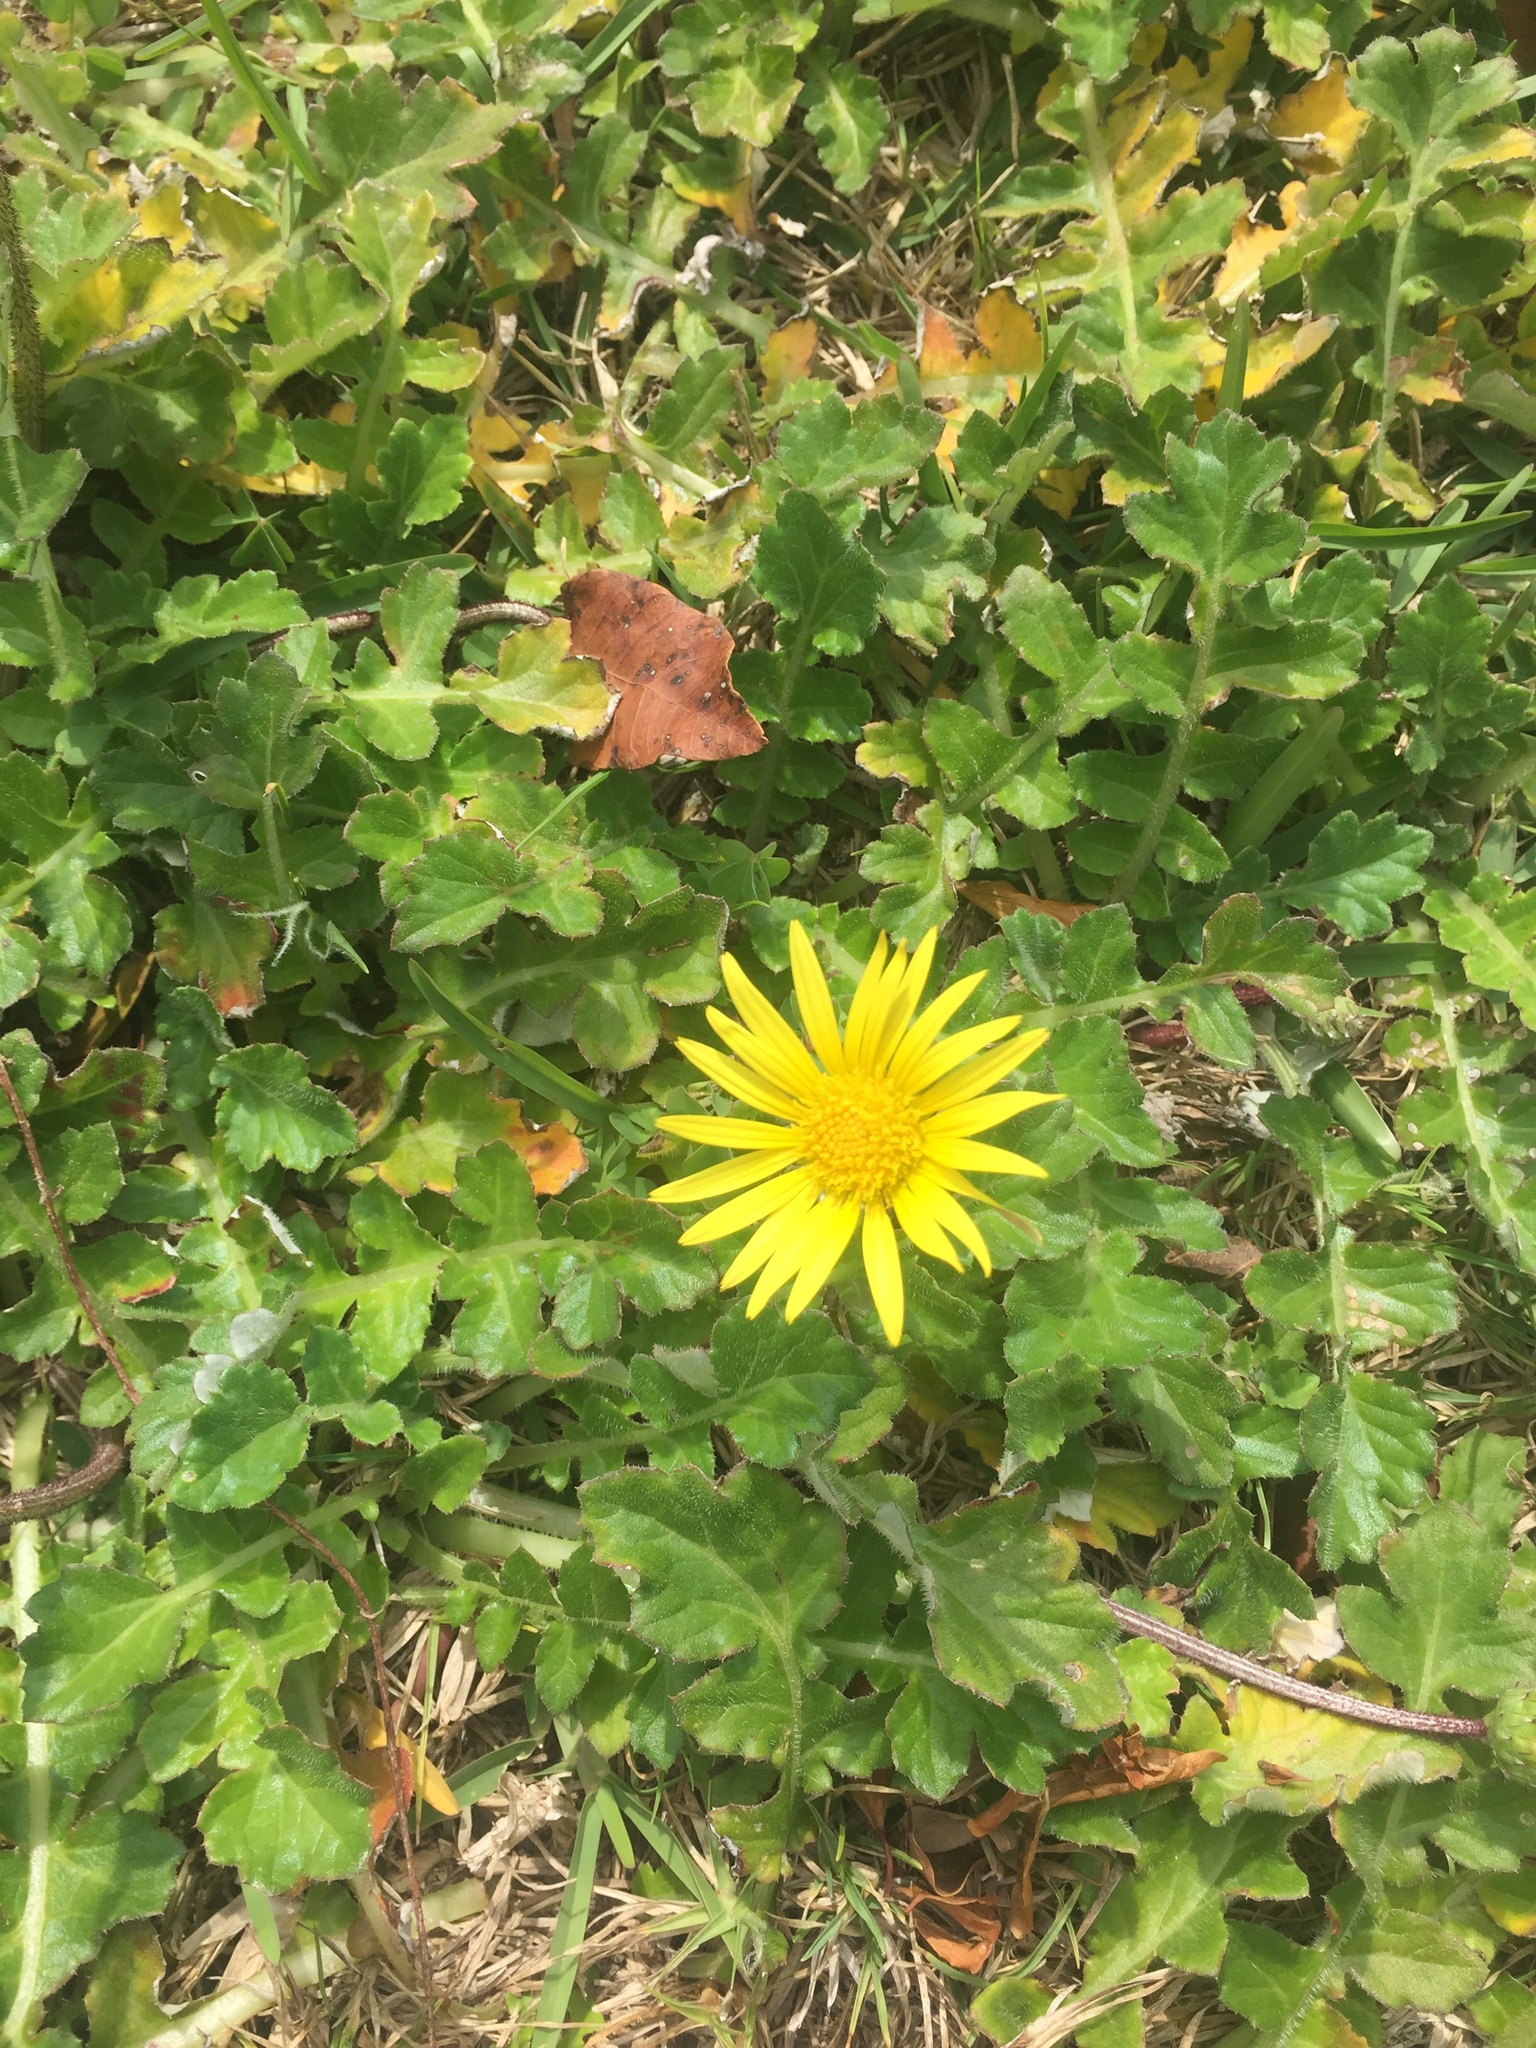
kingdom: Plantae
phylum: Tracheophyta
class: Magnoliopsida
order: Asterales
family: Asteraceae
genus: Arctotheca
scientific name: Arctotheca prostrata
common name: Capeweed
